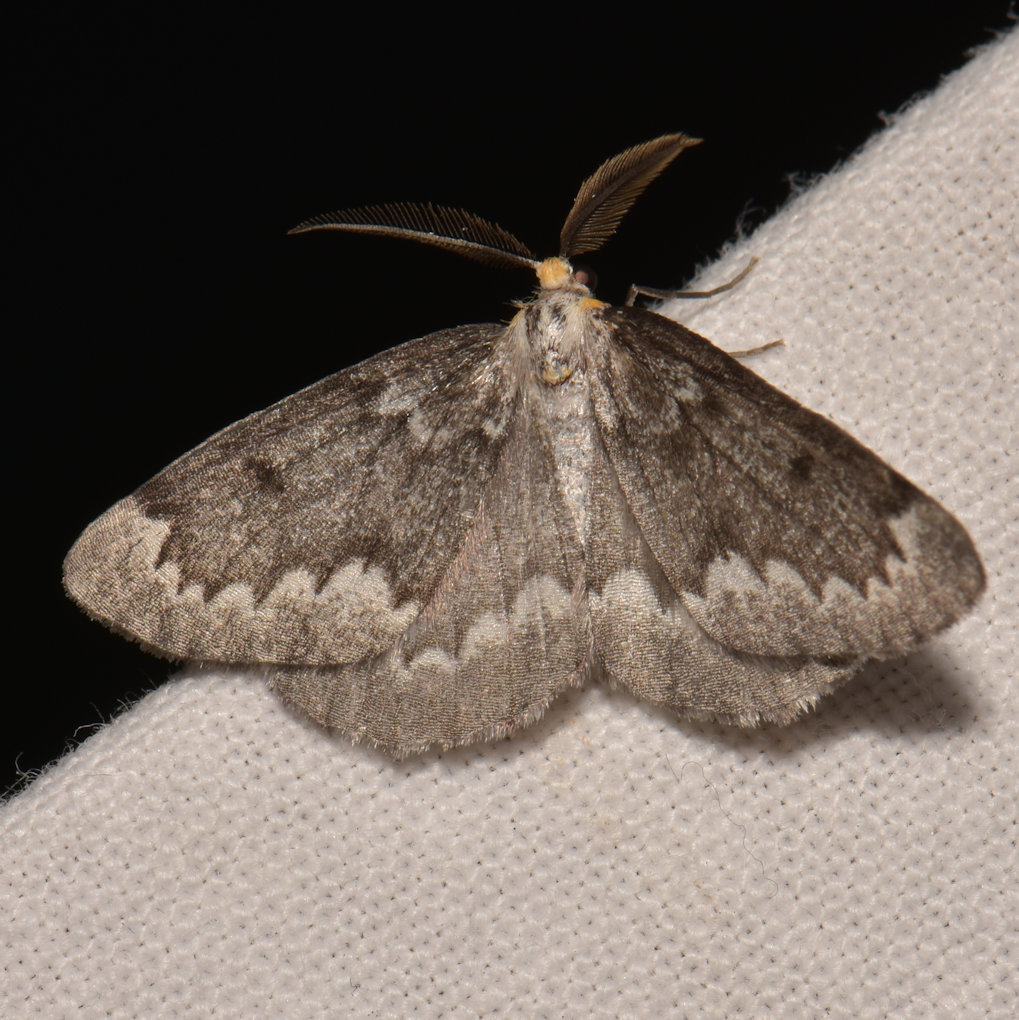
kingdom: Animalia
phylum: Arthropoda
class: Insecta
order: Lepidoptera
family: Geometridae
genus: Nepytia
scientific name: Nepytia canosaria
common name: False hemlock looper
